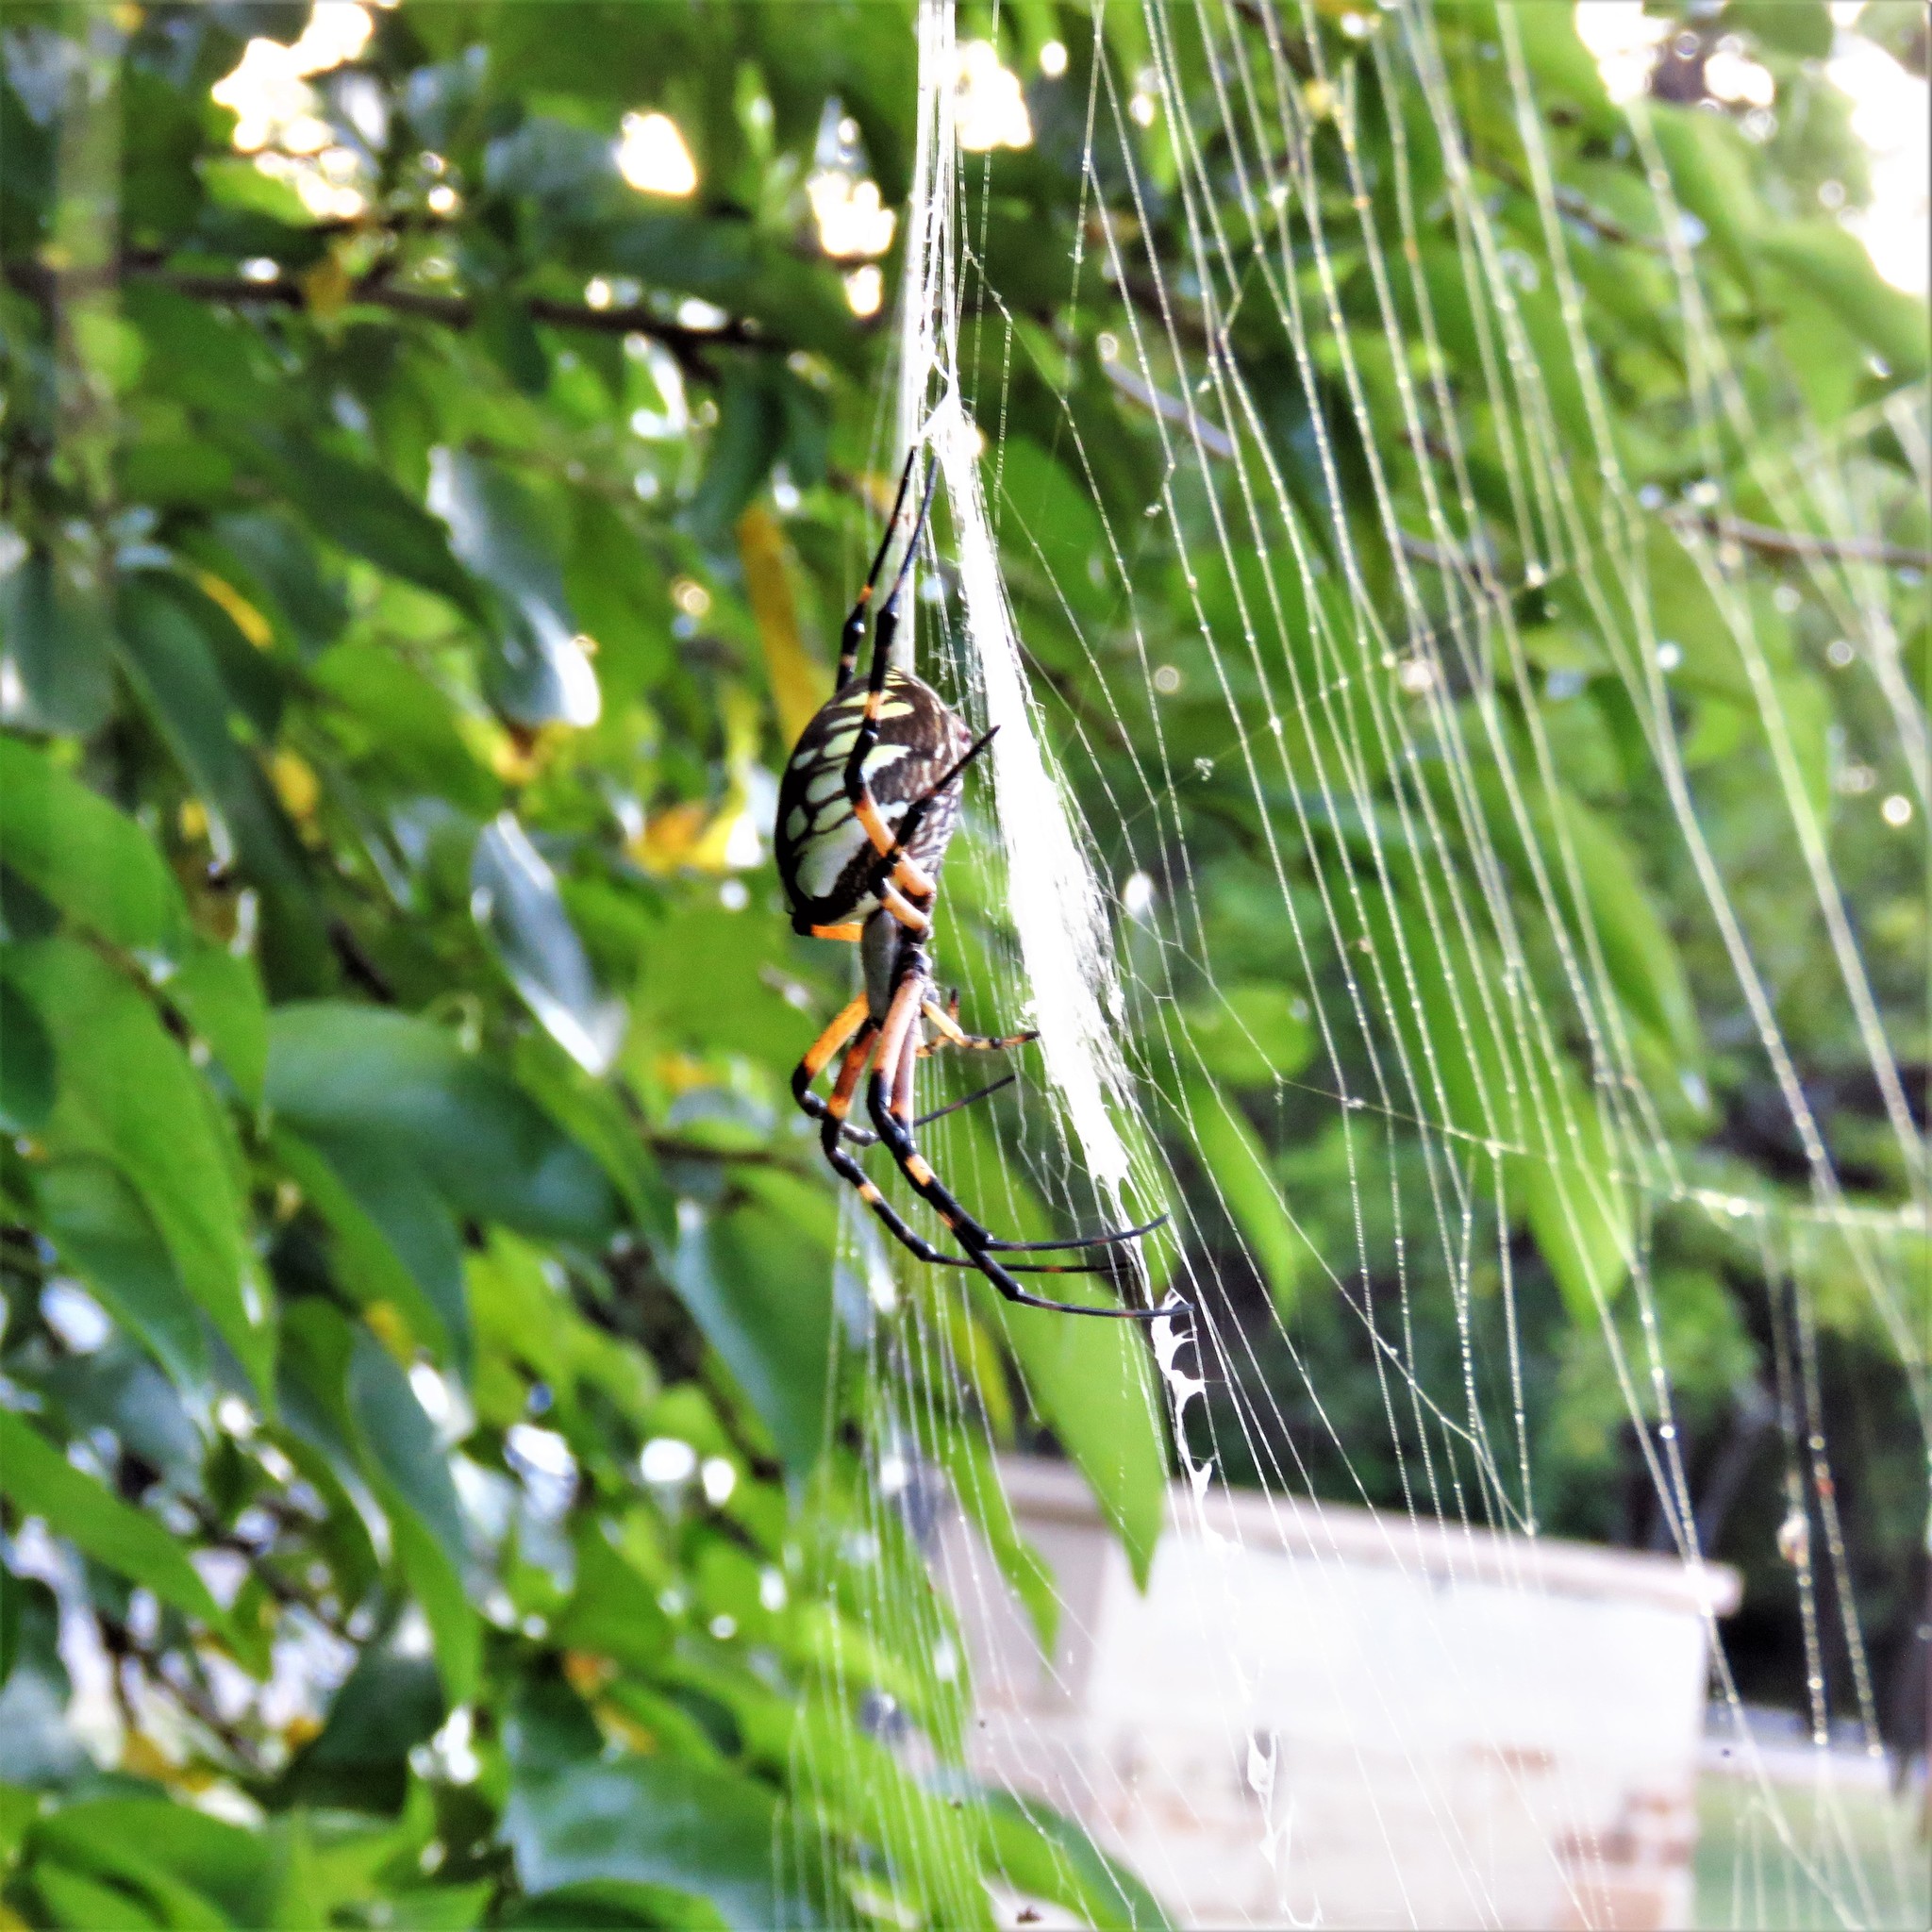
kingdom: Animalia
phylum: Arthropoda
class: Arachnida
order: Araneae
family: Araneidae
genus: Argiope
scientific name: Argiope aurantia
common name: Orb weavers
